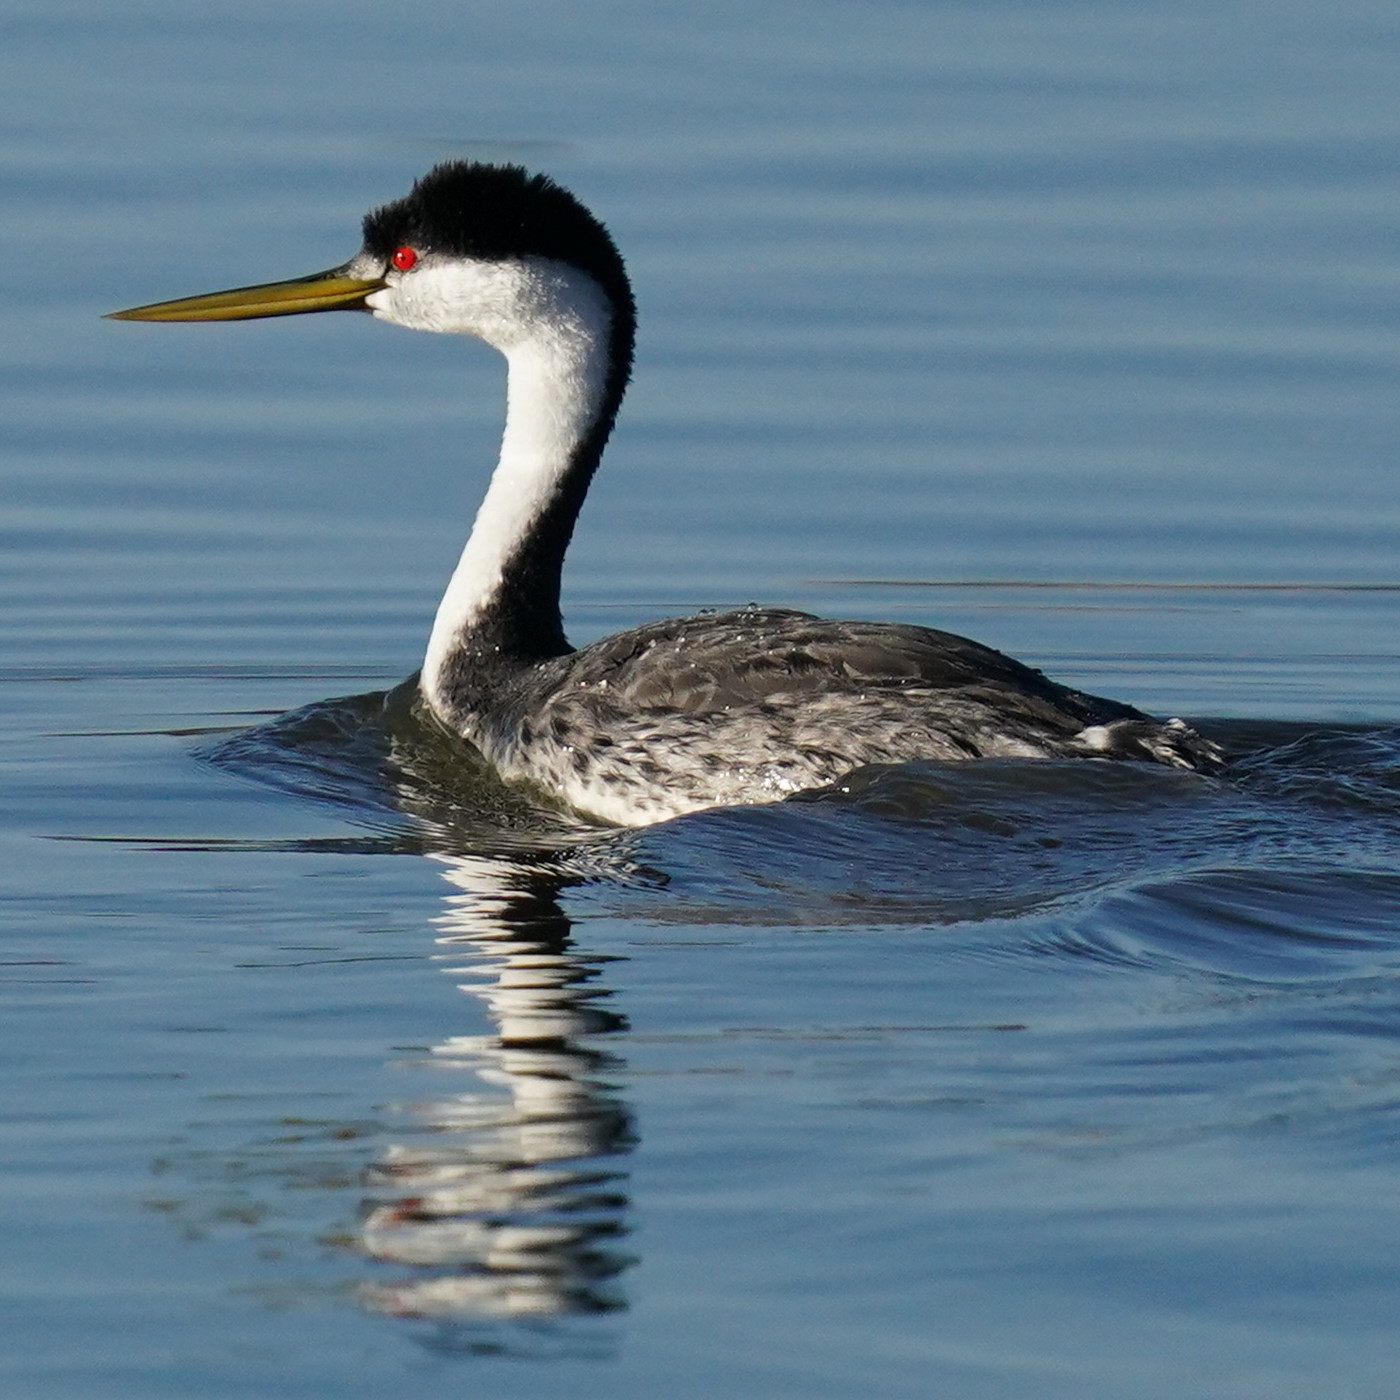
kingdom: Animalia
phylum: Chordata
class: Aves
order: Podicipediformes
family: Podicipedidae
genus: Aechmophorus
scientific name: Aechmophorus occidentalis
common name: Western grebe
